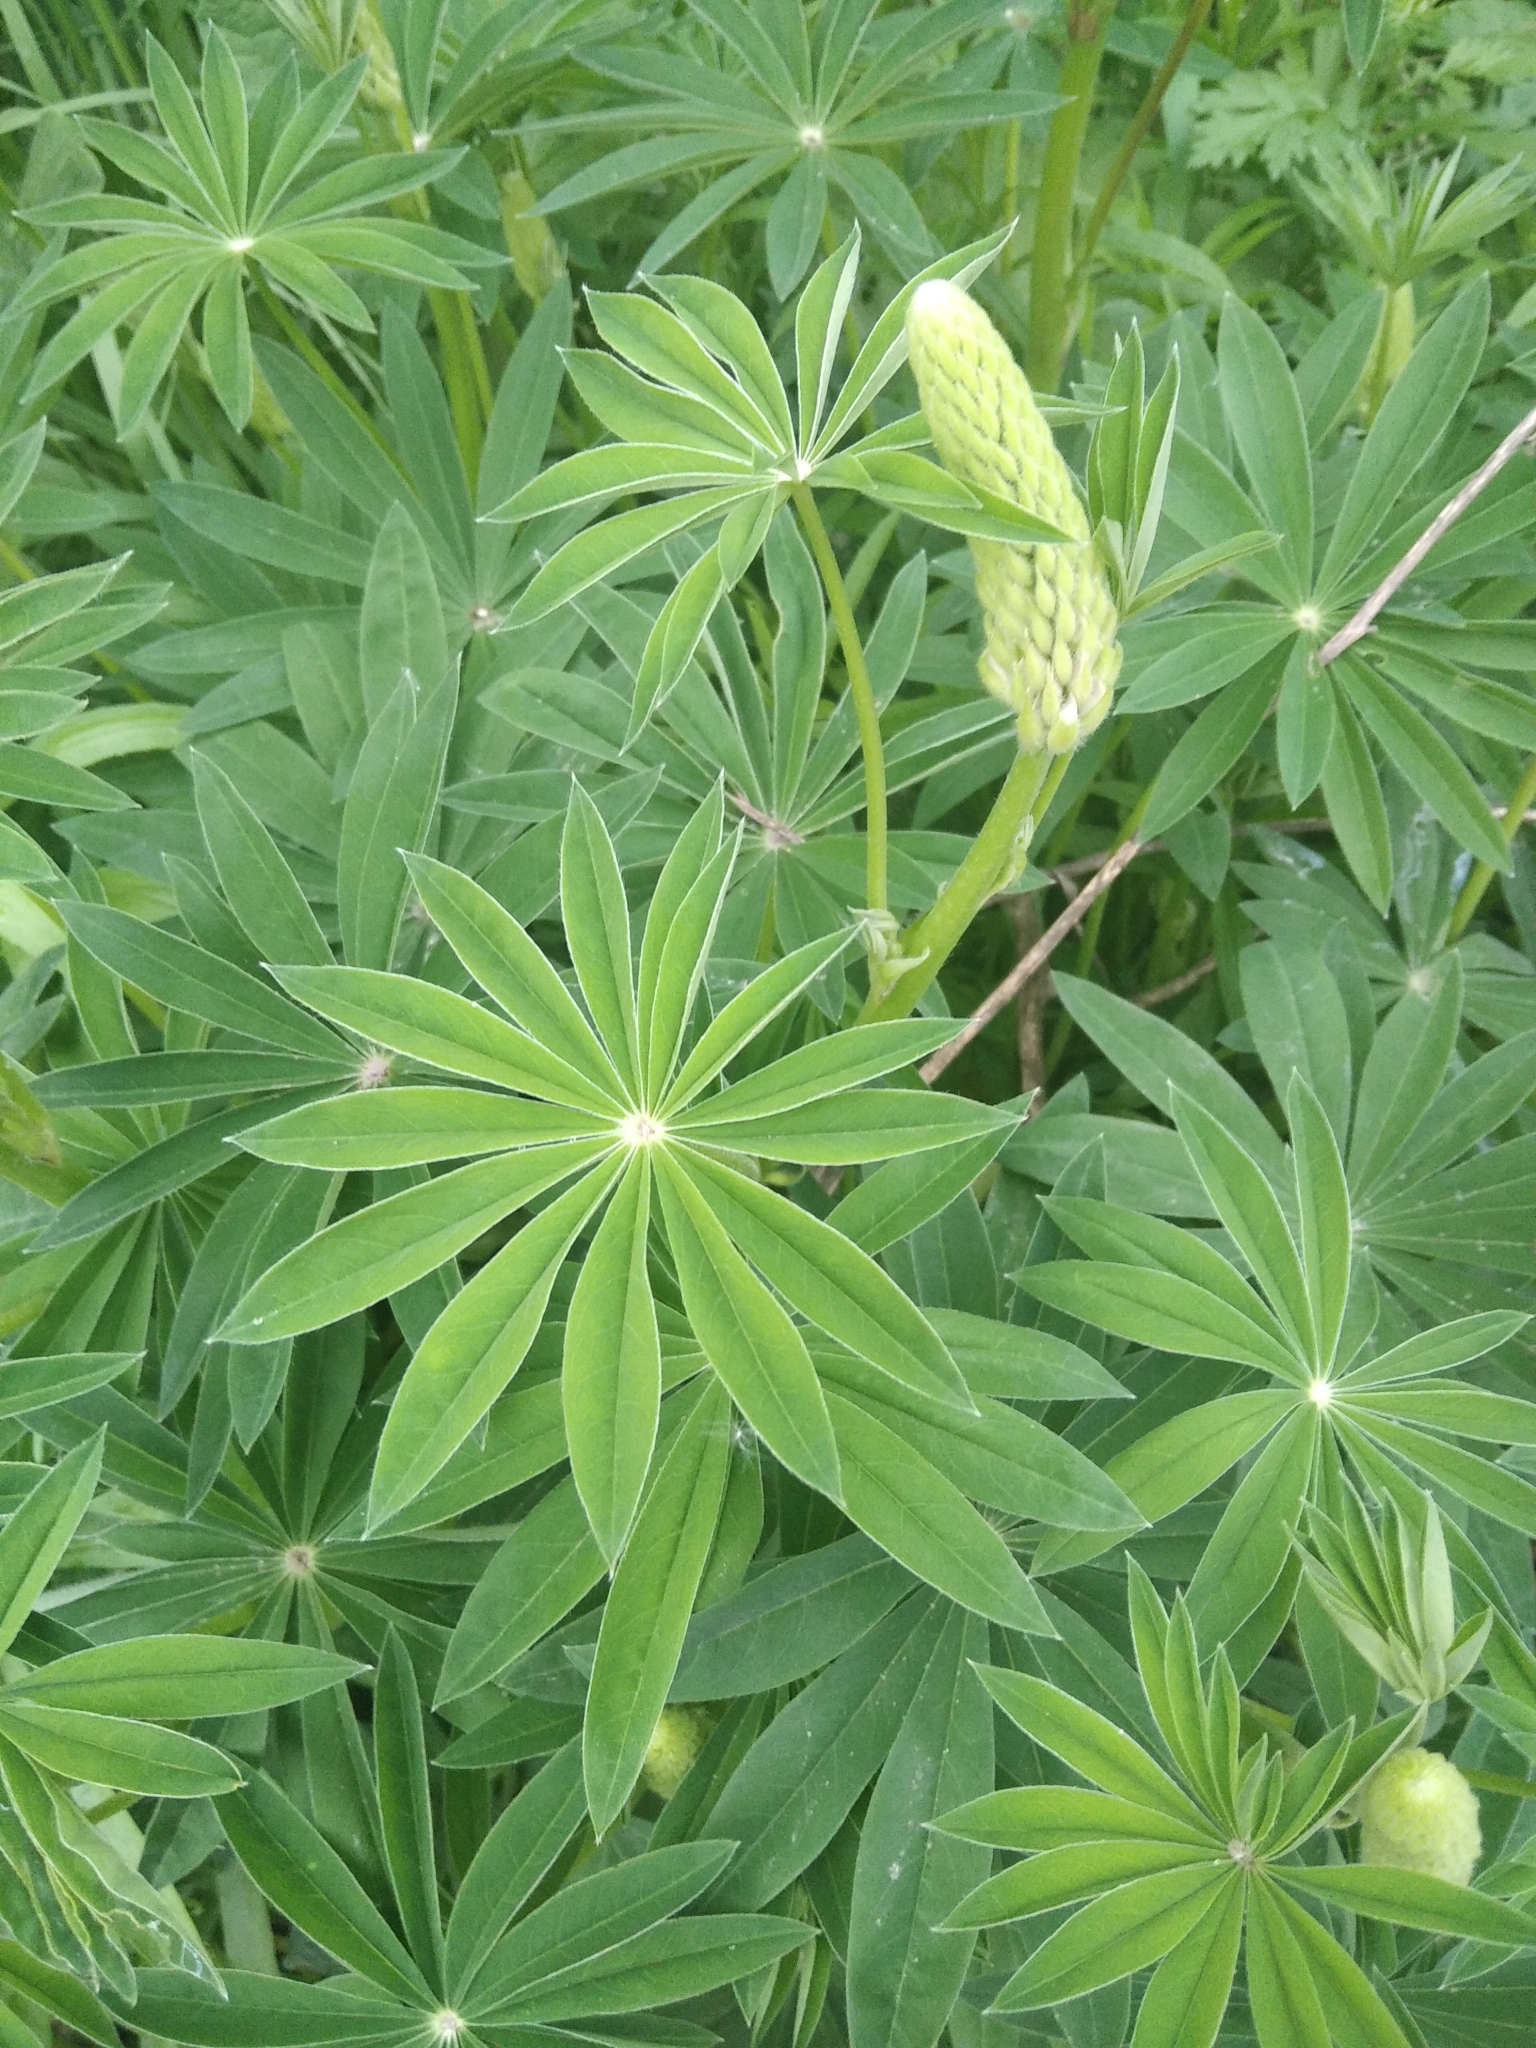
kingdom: Plantae
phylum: Tracheophyta
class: Magnoliopsida
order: Fabales
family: Fabaceae
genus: Lupinus
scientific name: Lupinus polyphyllus
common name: Garden lupin
